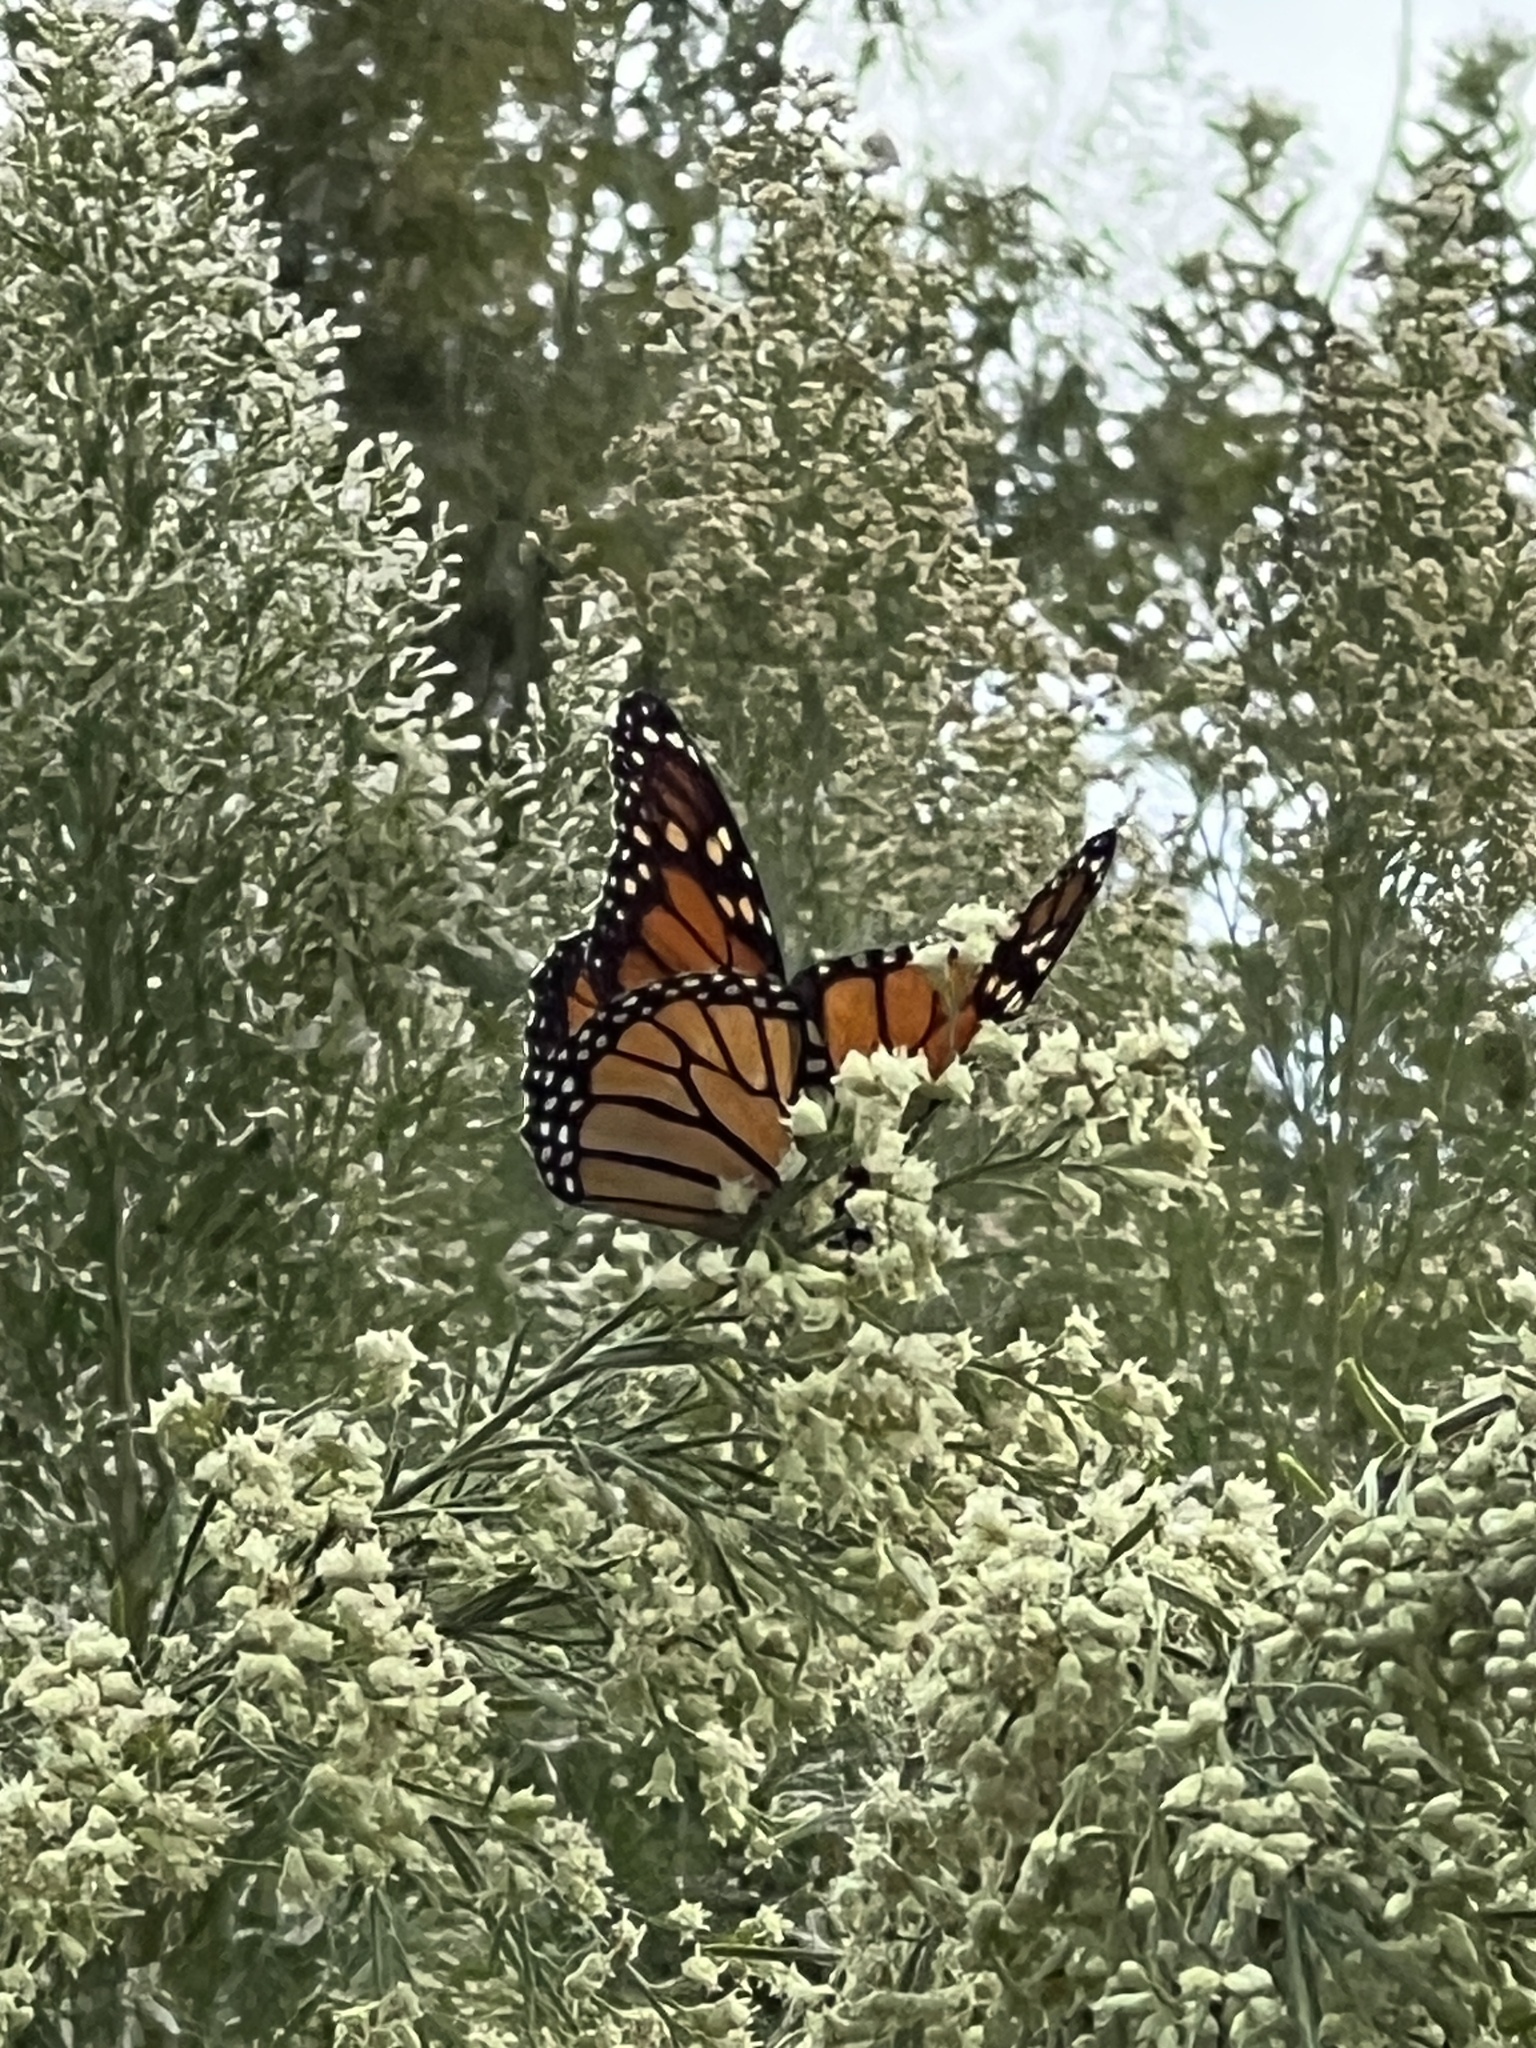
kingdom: Animalia
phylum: Arthropoda
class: Insecta
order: Lepidoptera
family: Nymphalidae
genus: Danaus
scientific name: Danaus plexippus
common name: Monarch
